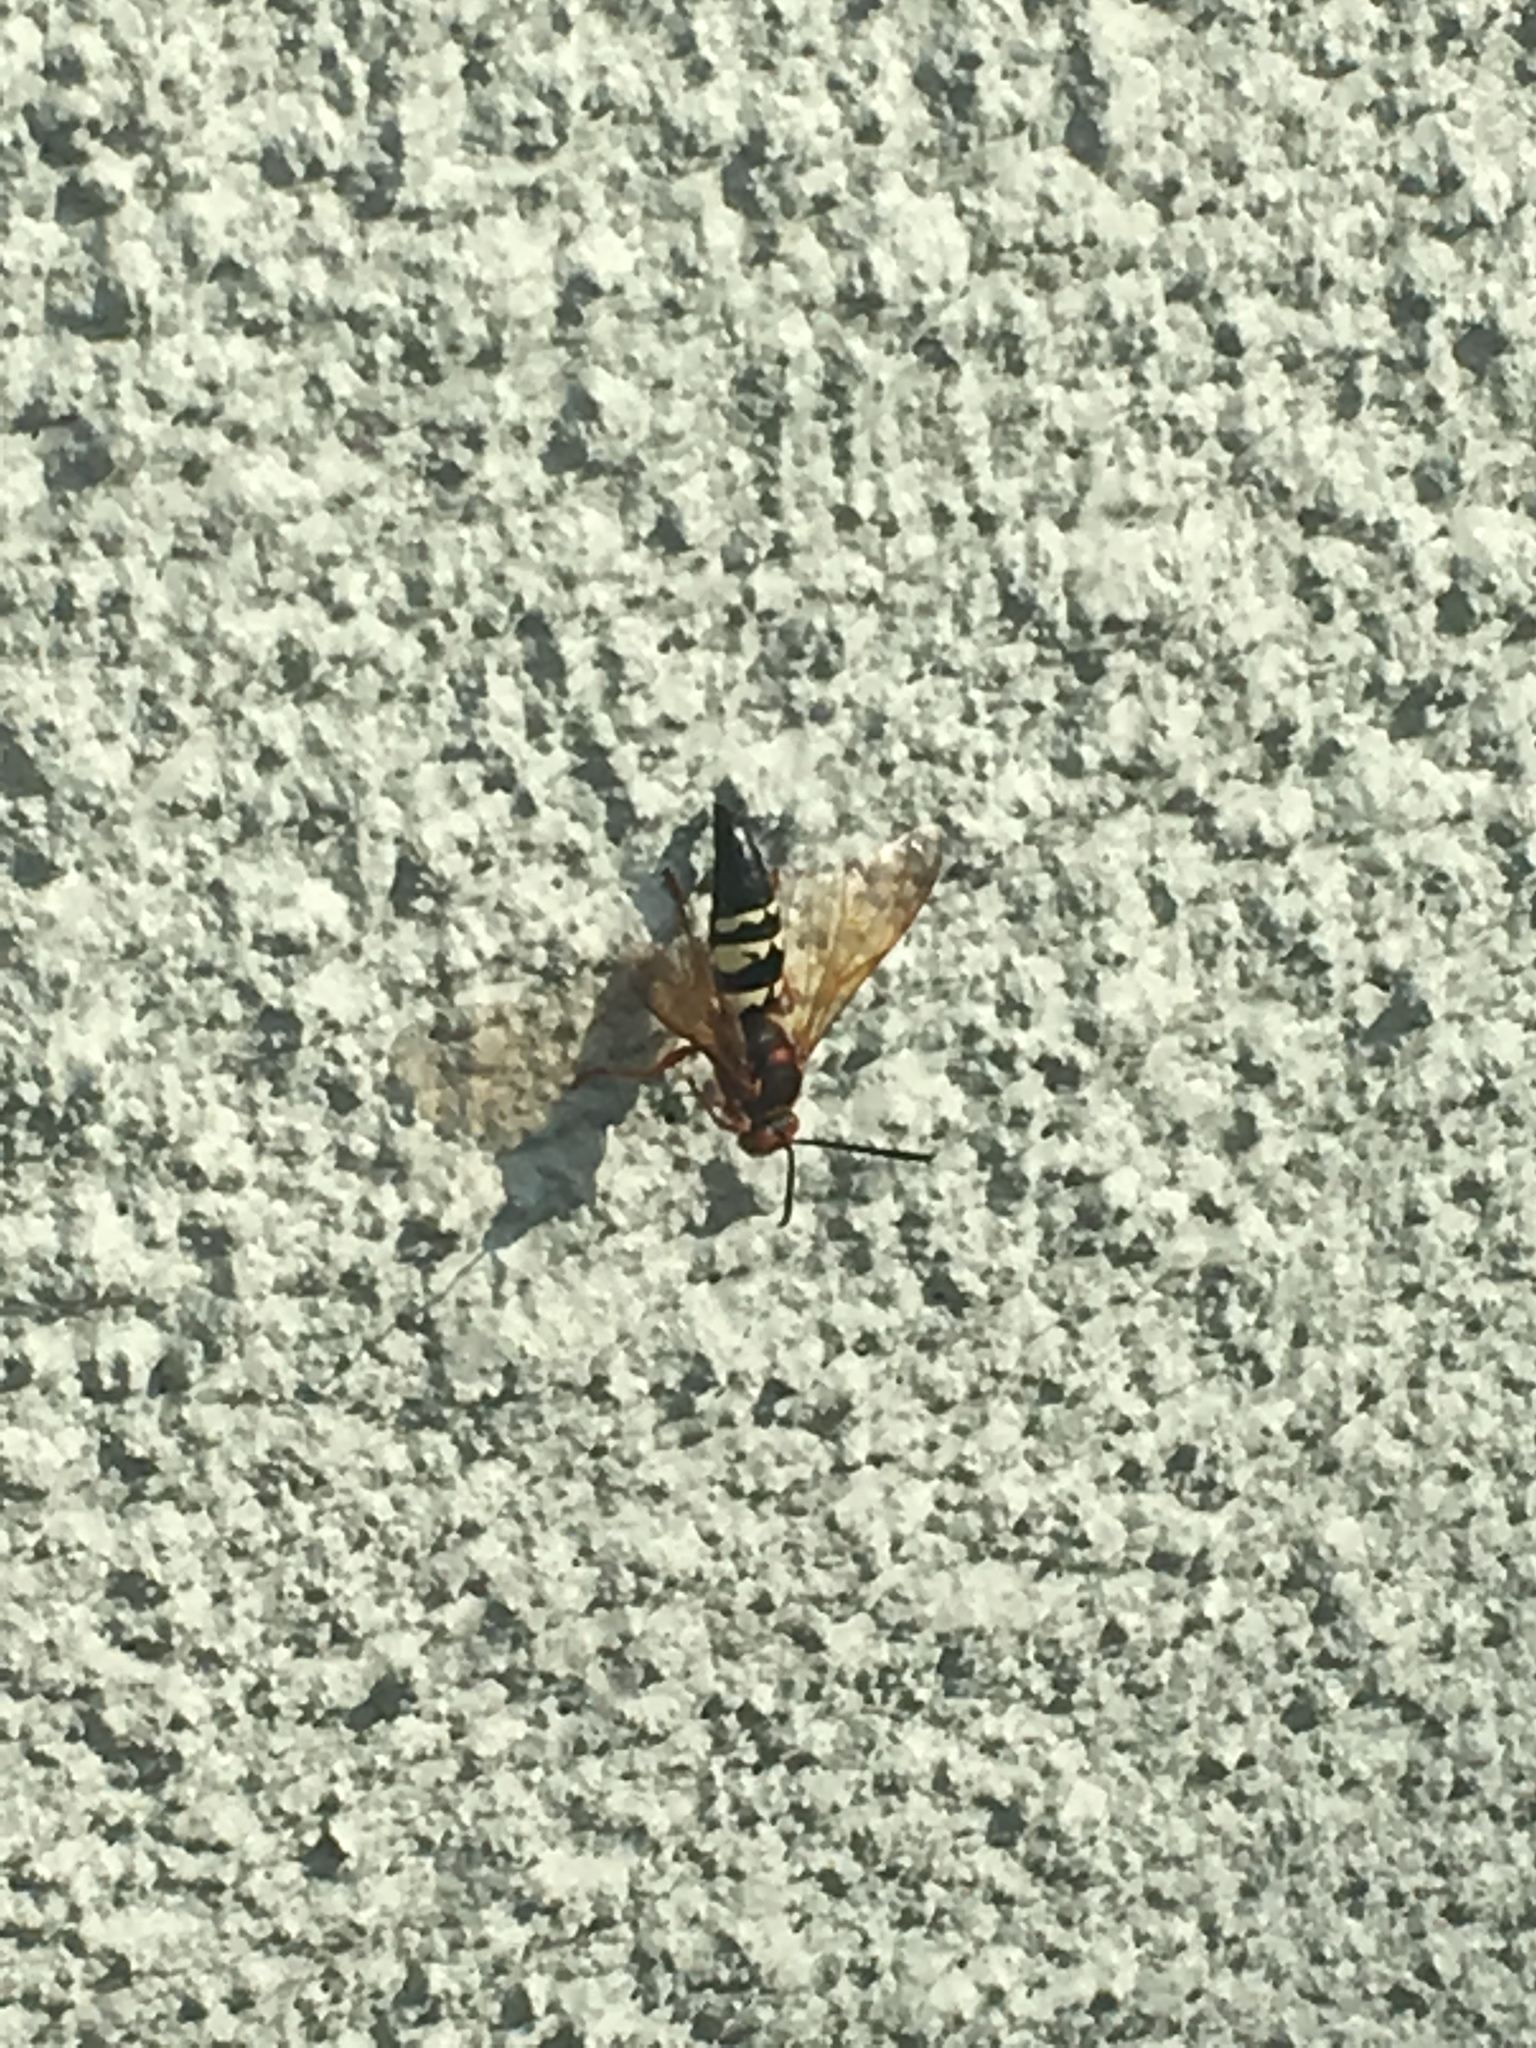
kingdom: Animalia
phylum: Arthropoda
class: Insecta
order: Hymenoptera
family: Crabronidae
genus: Sphecius
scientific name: Sphecius speciosus
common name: Cicada killer
